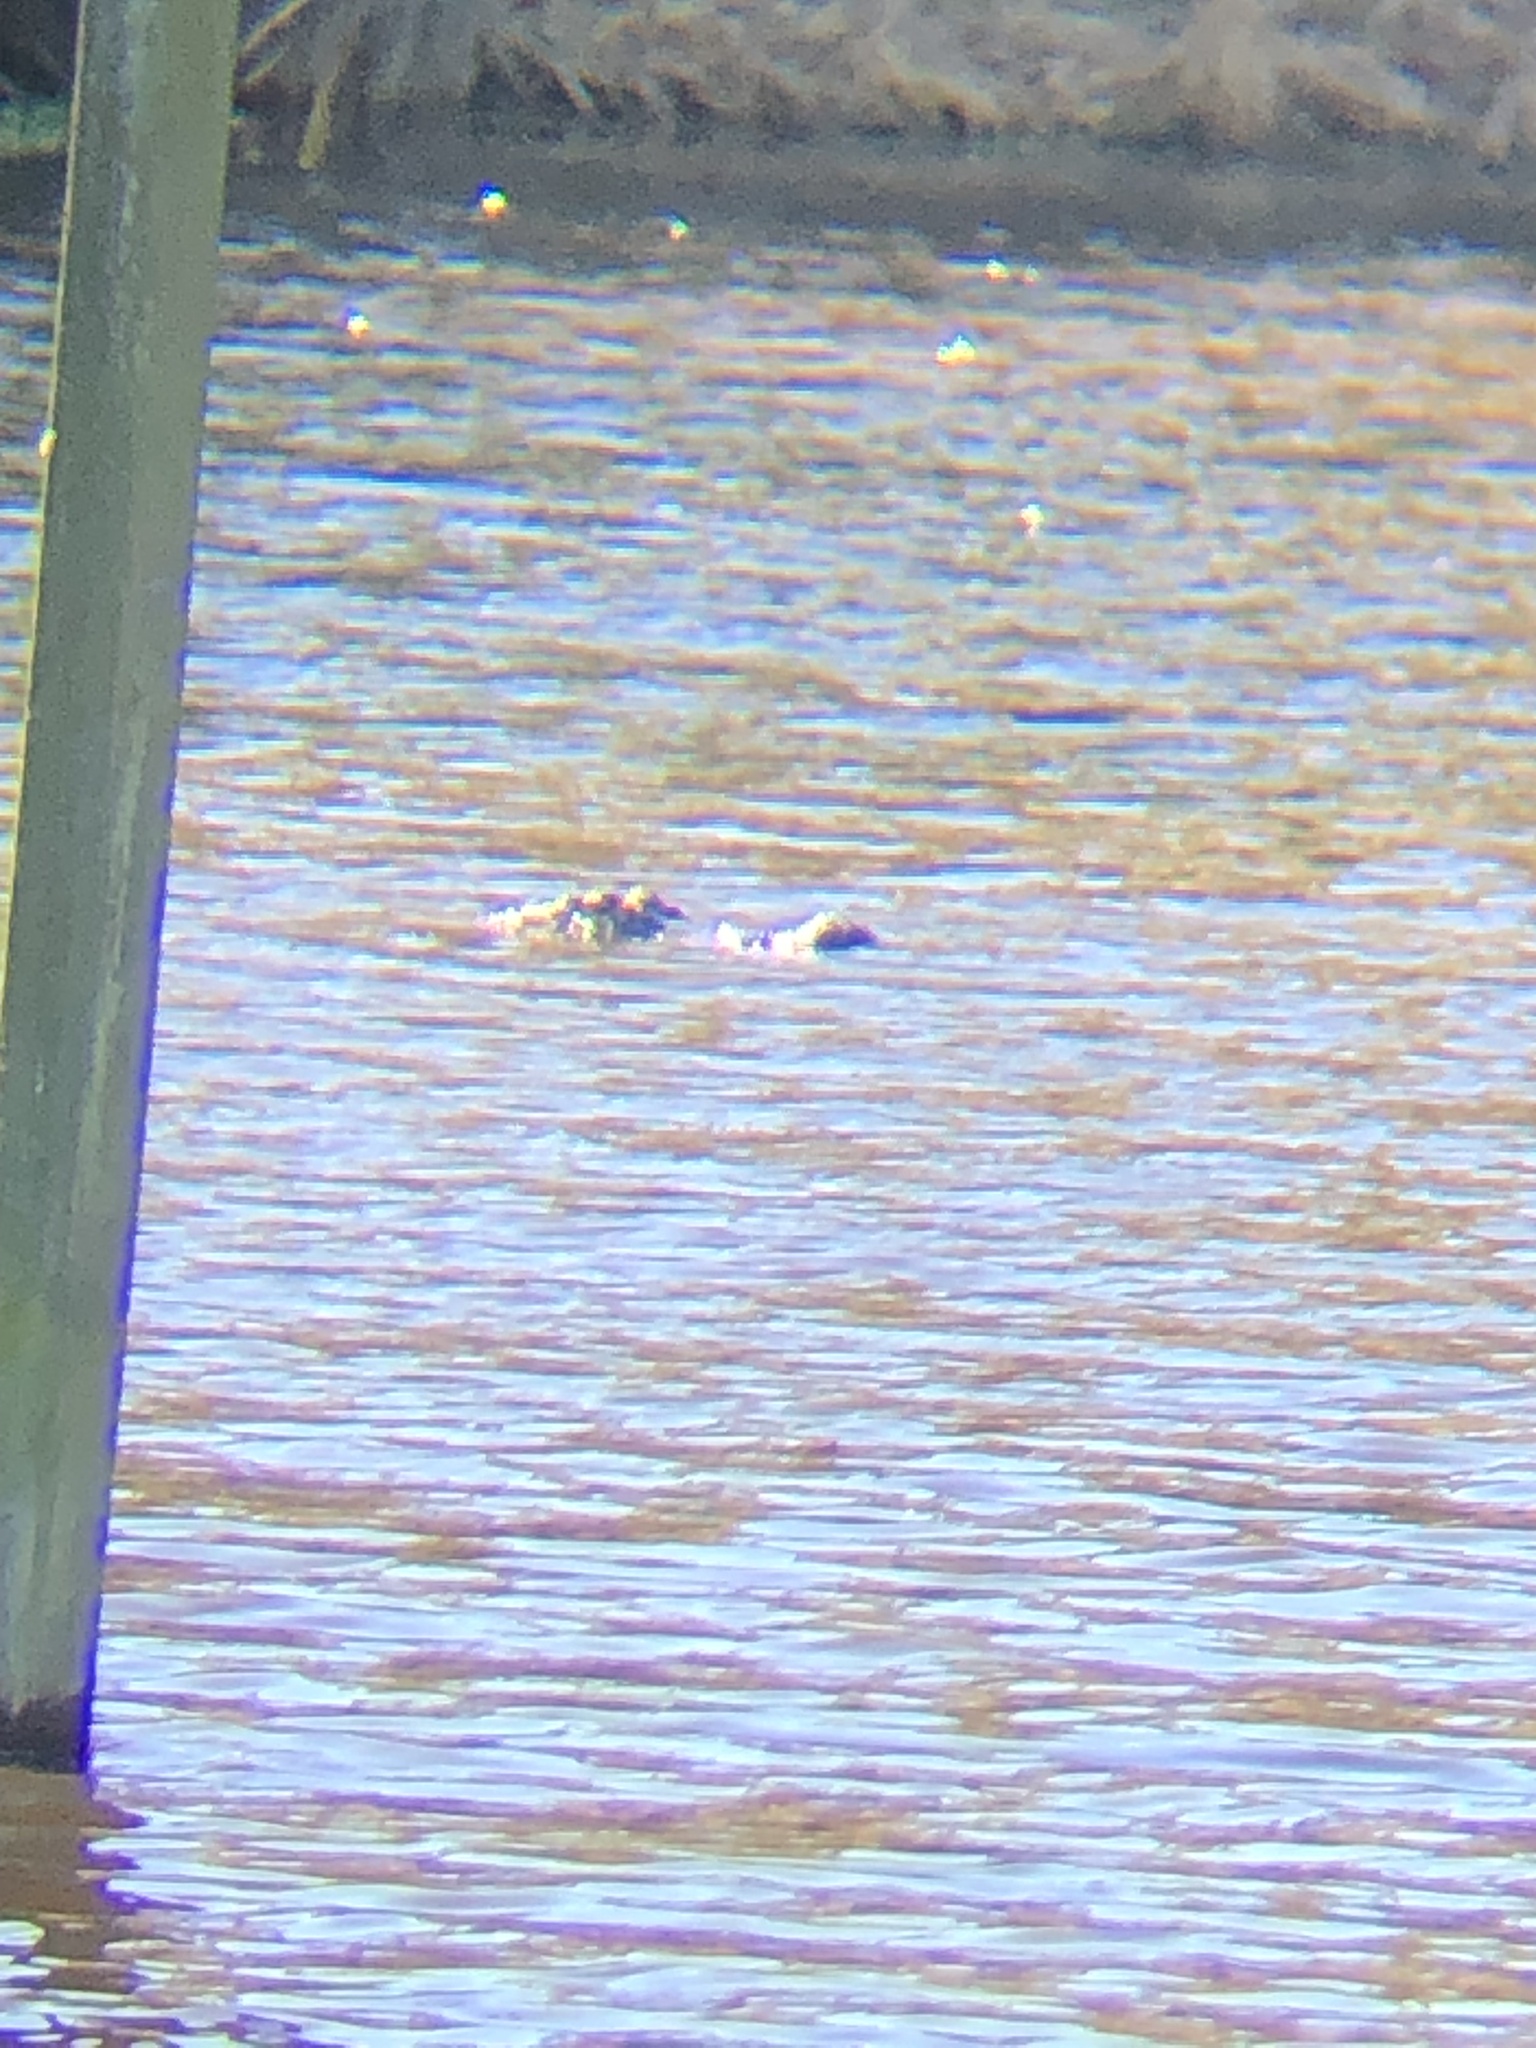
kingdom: Animalia
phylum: Chordata
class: Crocodylia
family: Alligatoridae
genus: Alligator
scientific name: Alligator mississippiensis
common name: American alligator
